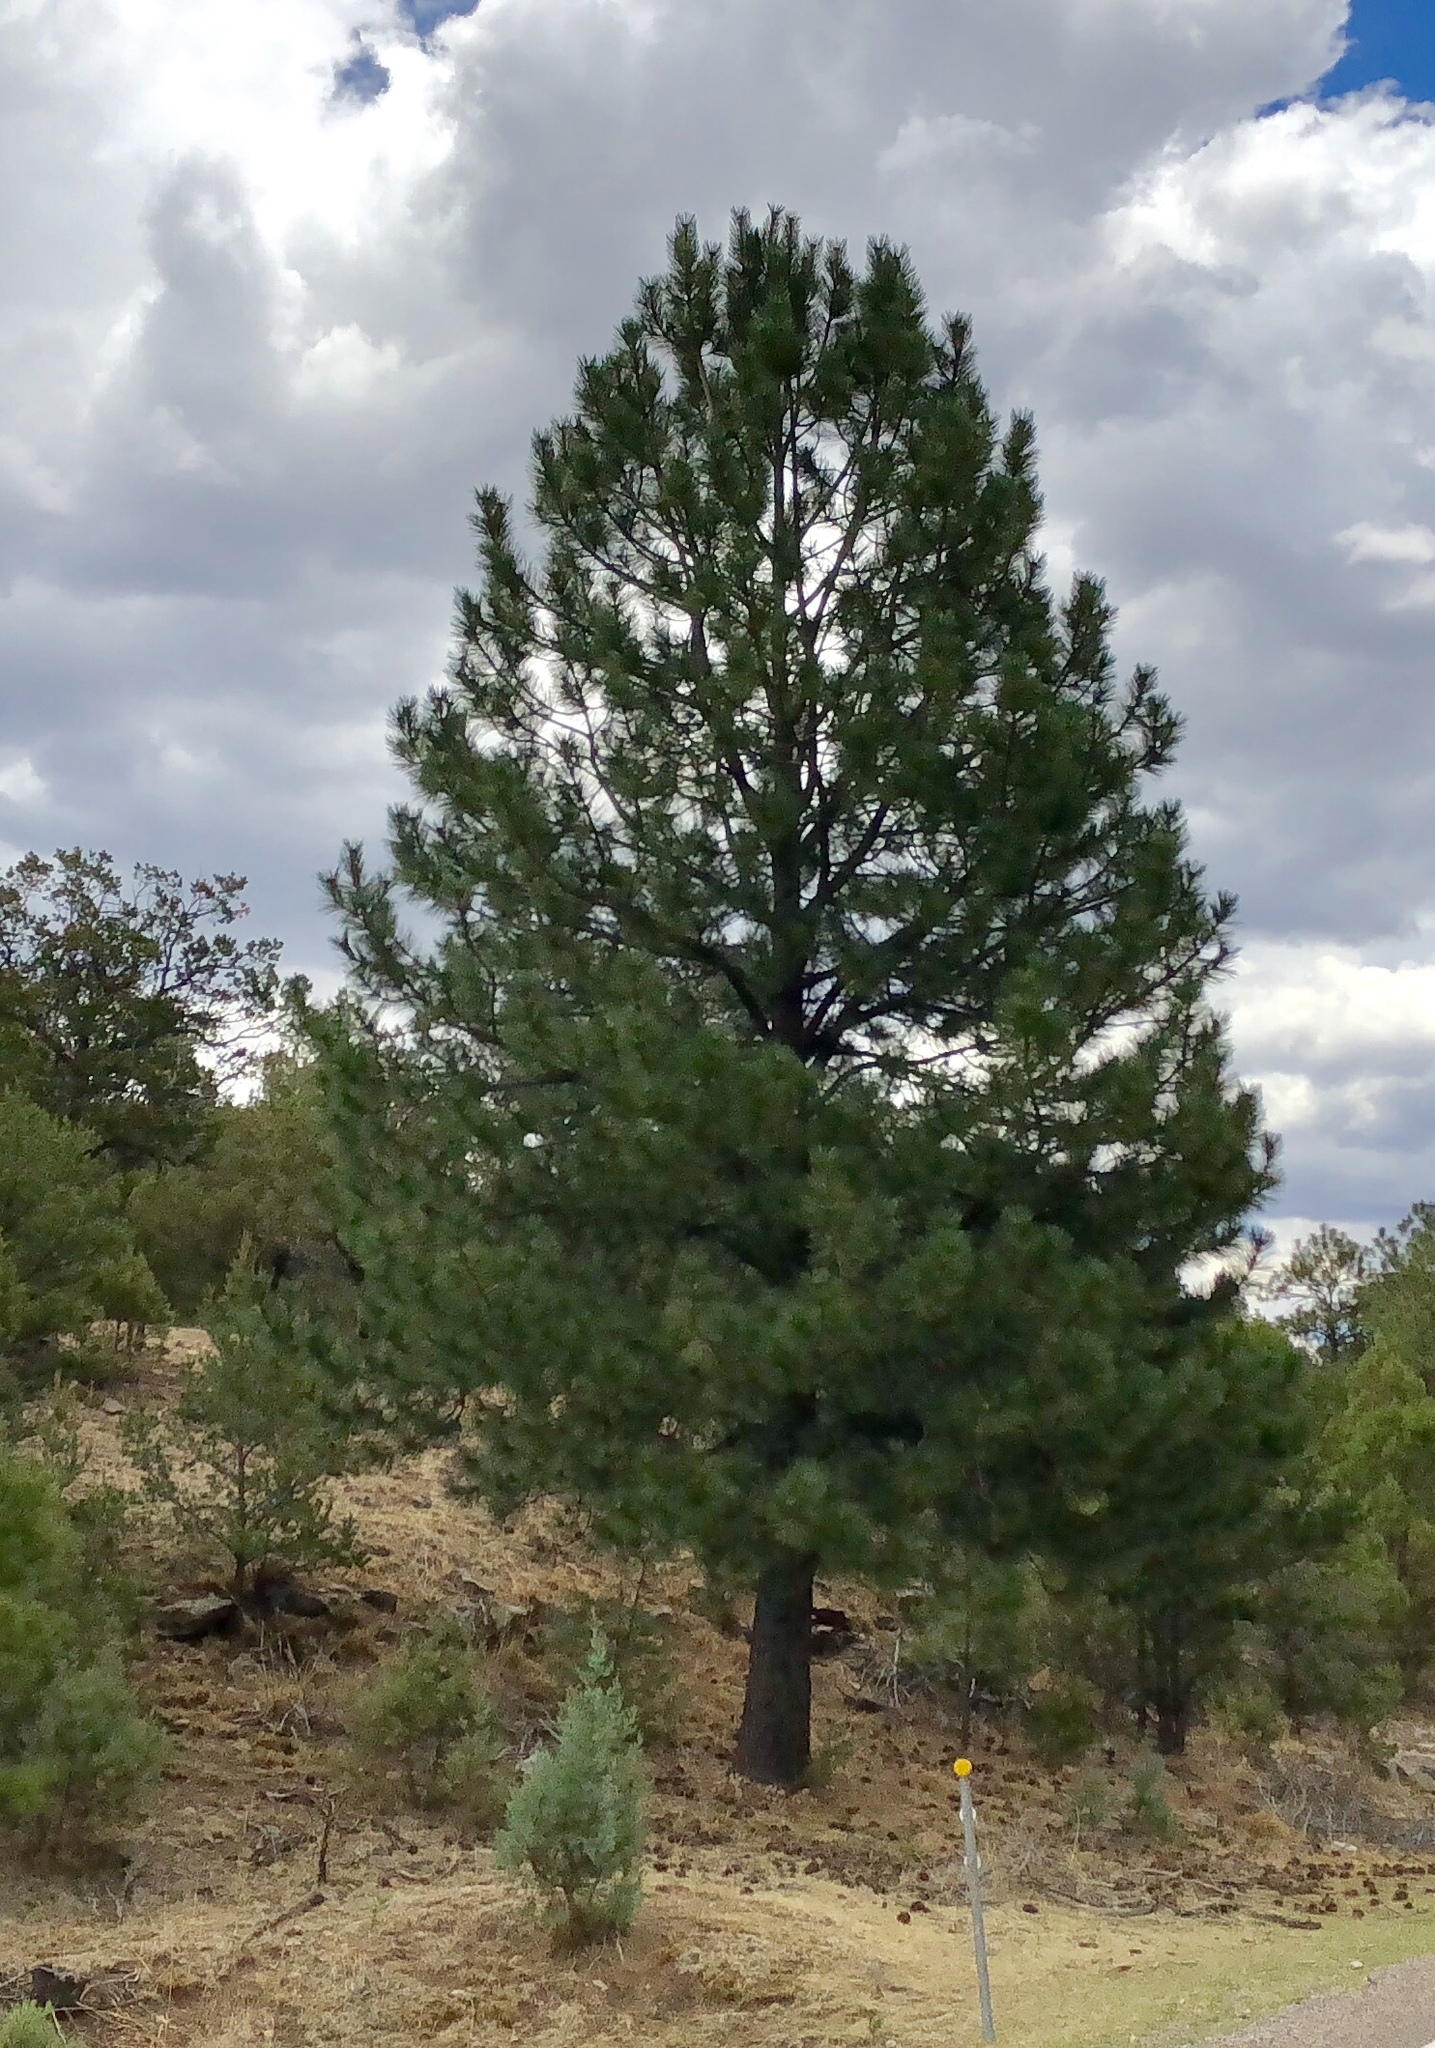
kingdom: Plantae
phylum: Tracheophyta
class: Pinopsida
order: Pinales
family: Pinaceae
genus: Pinus
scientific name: Pinus ponderosa
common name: Western yellow-pine
